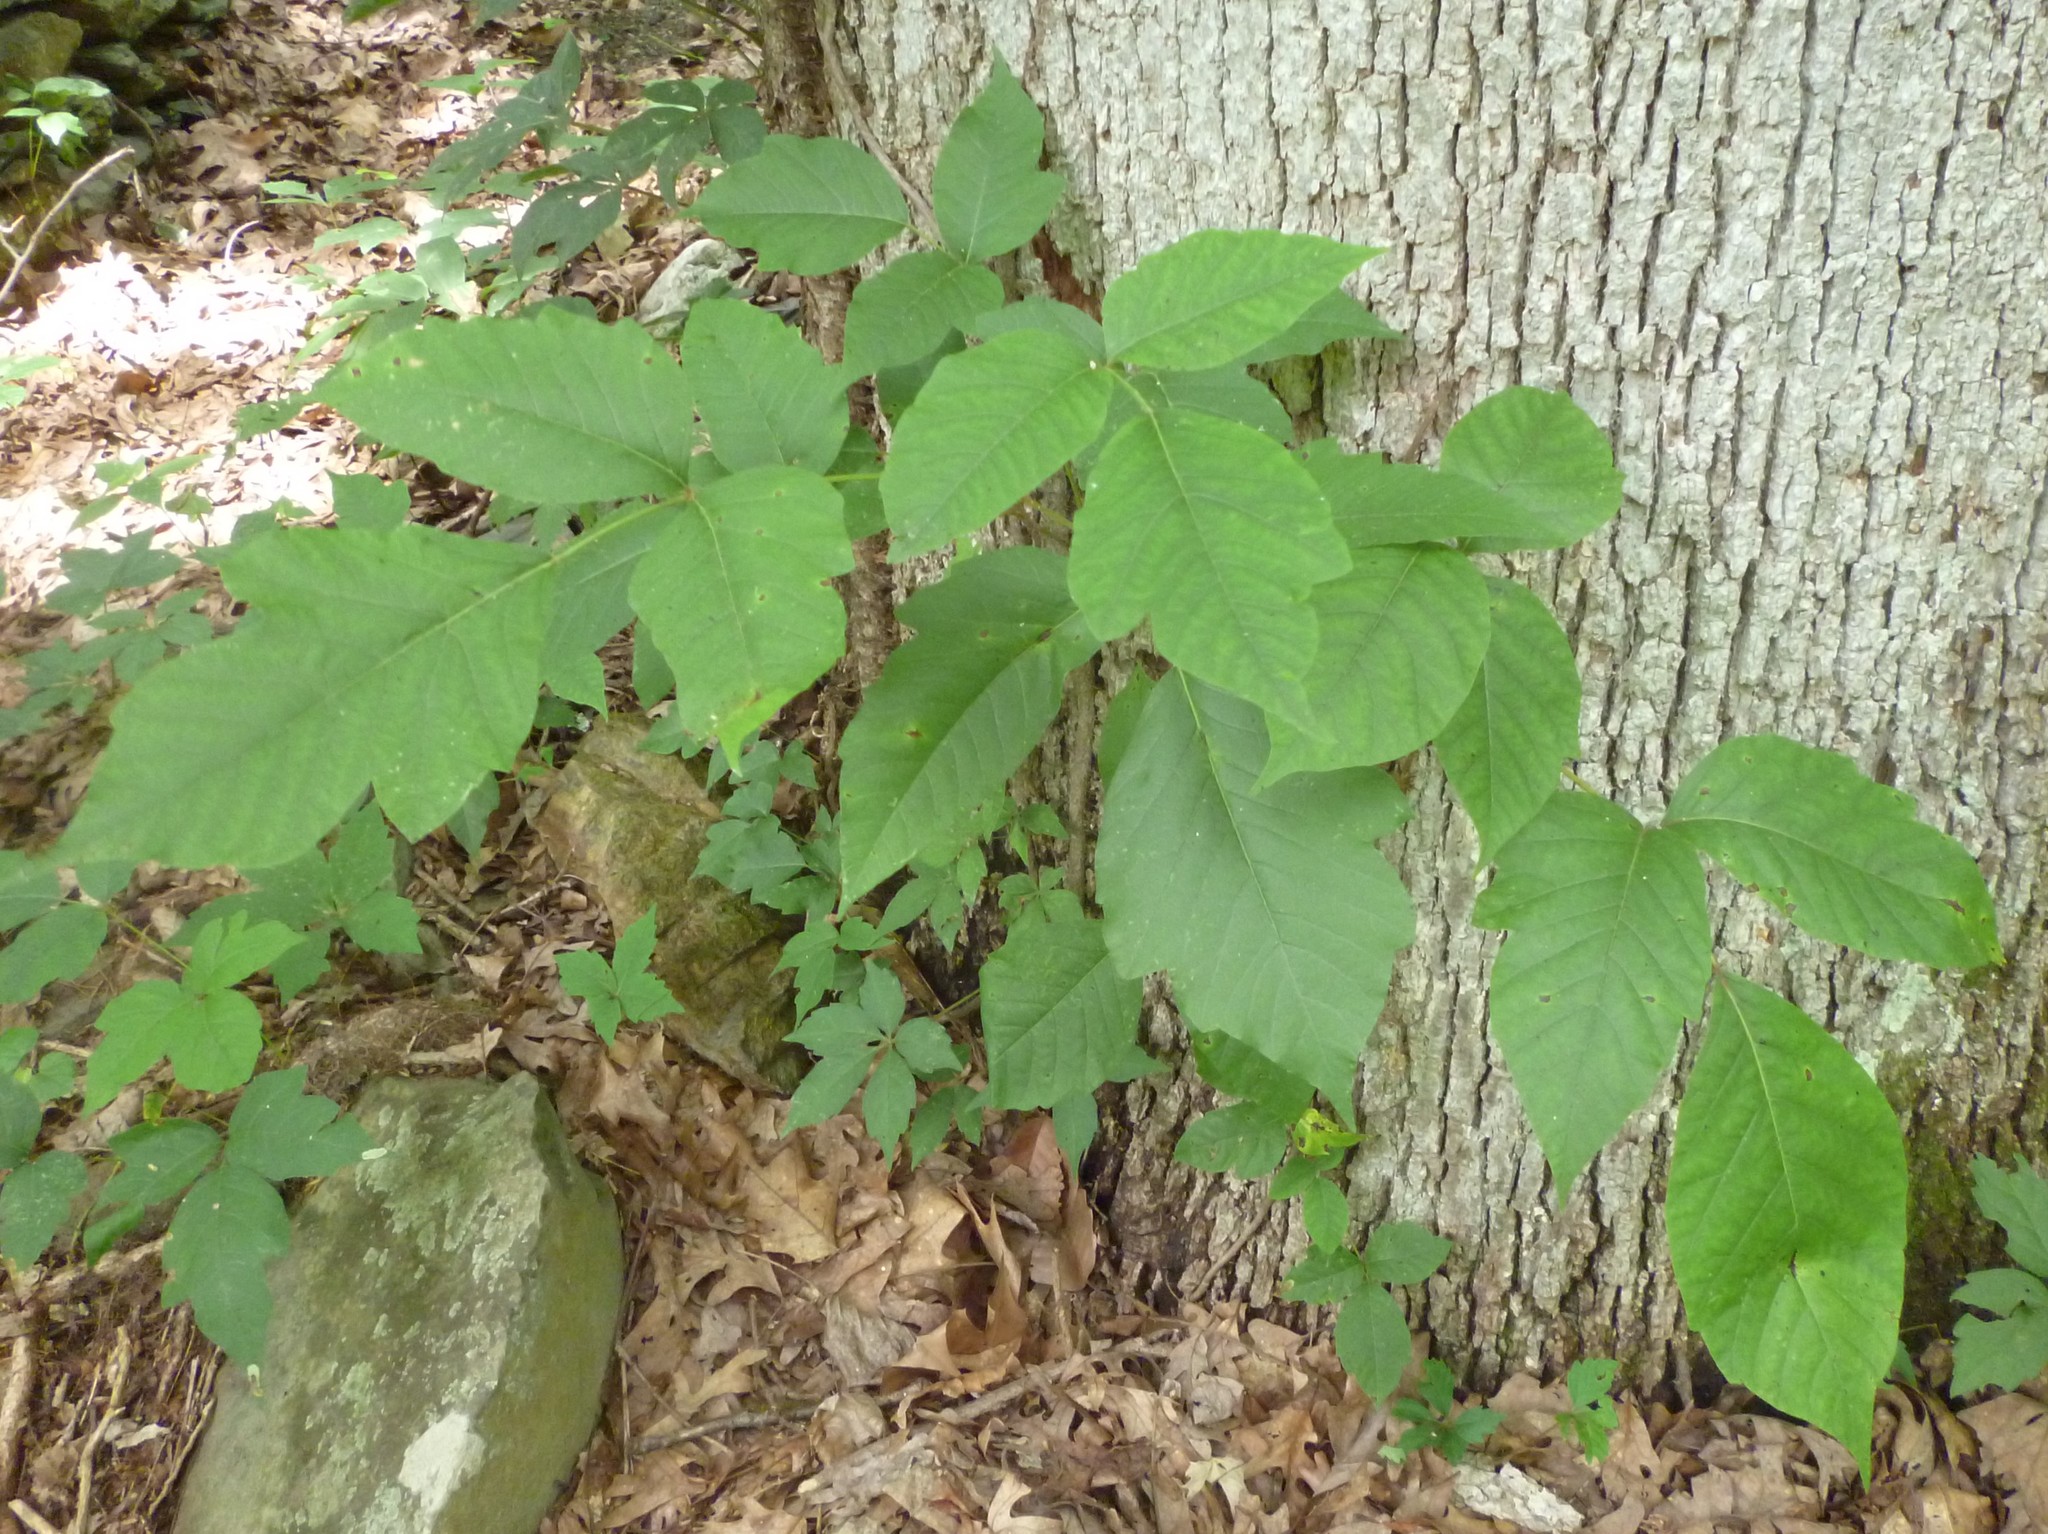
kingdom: Plantae
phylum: Tracheophyta
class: Magnoliopsida
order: Sapindales
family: Anacardiaceae
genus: Toxicodendron
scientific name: Toxicodendron radicans
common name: Poison ivy
